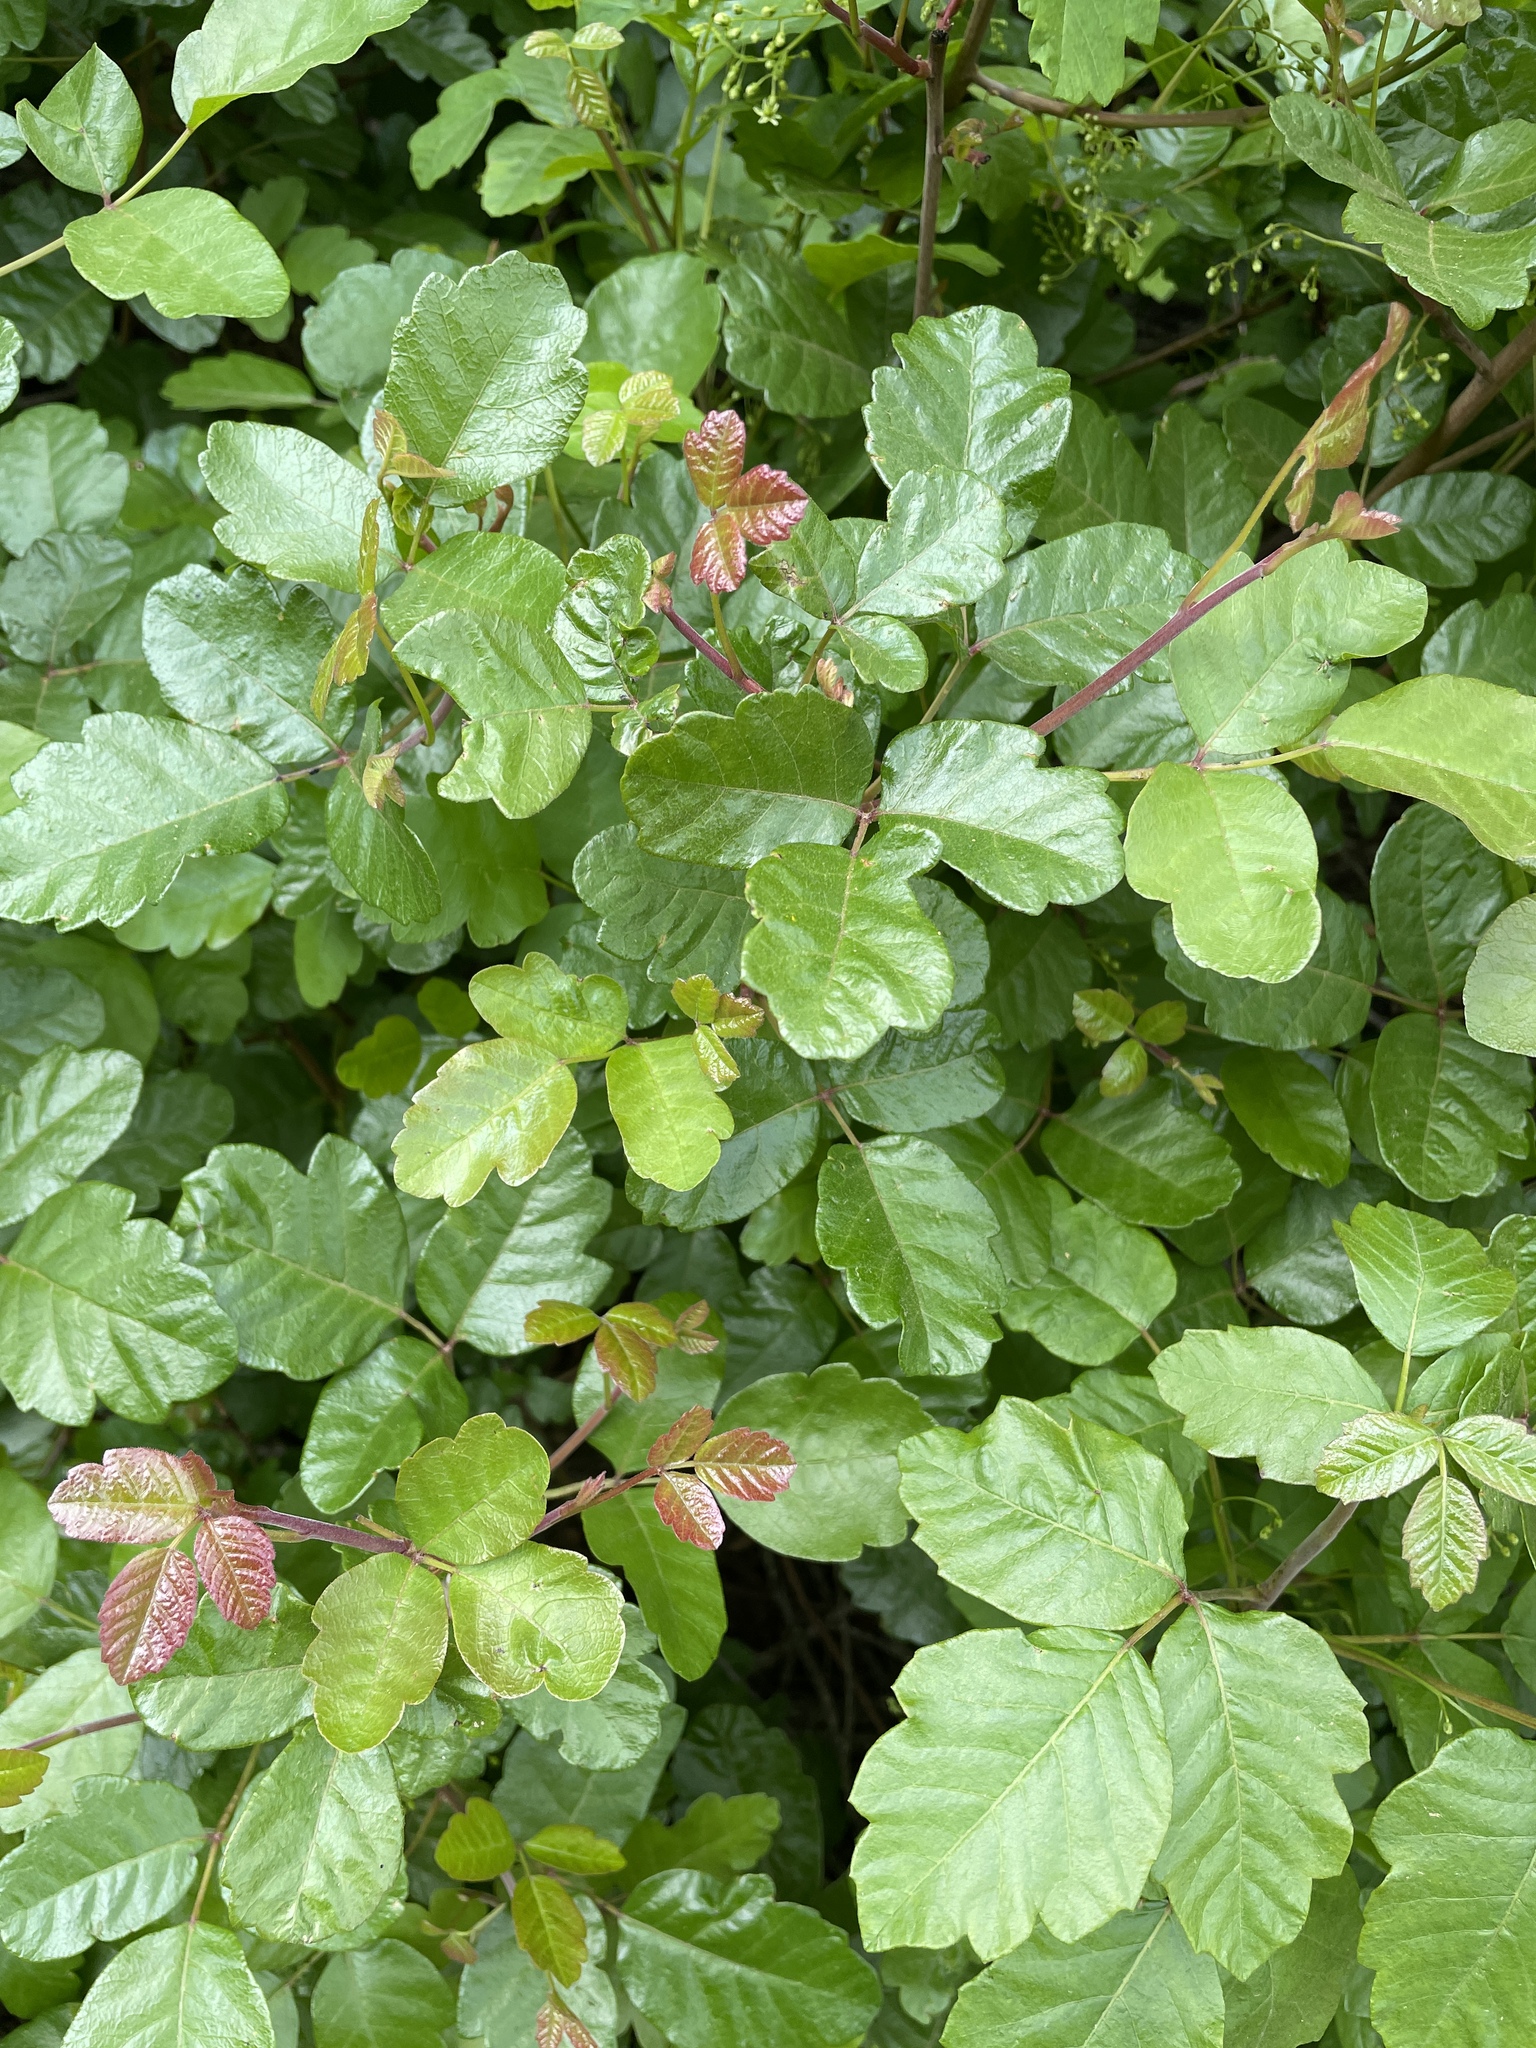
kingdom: Plantae
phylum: Tracheophyta
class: Magnoliopsida
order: Sapindales
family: Anacardiaceae
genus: Toxicodendron
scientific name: Toxicodendron diversilobum
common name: Pacific poison-oak
